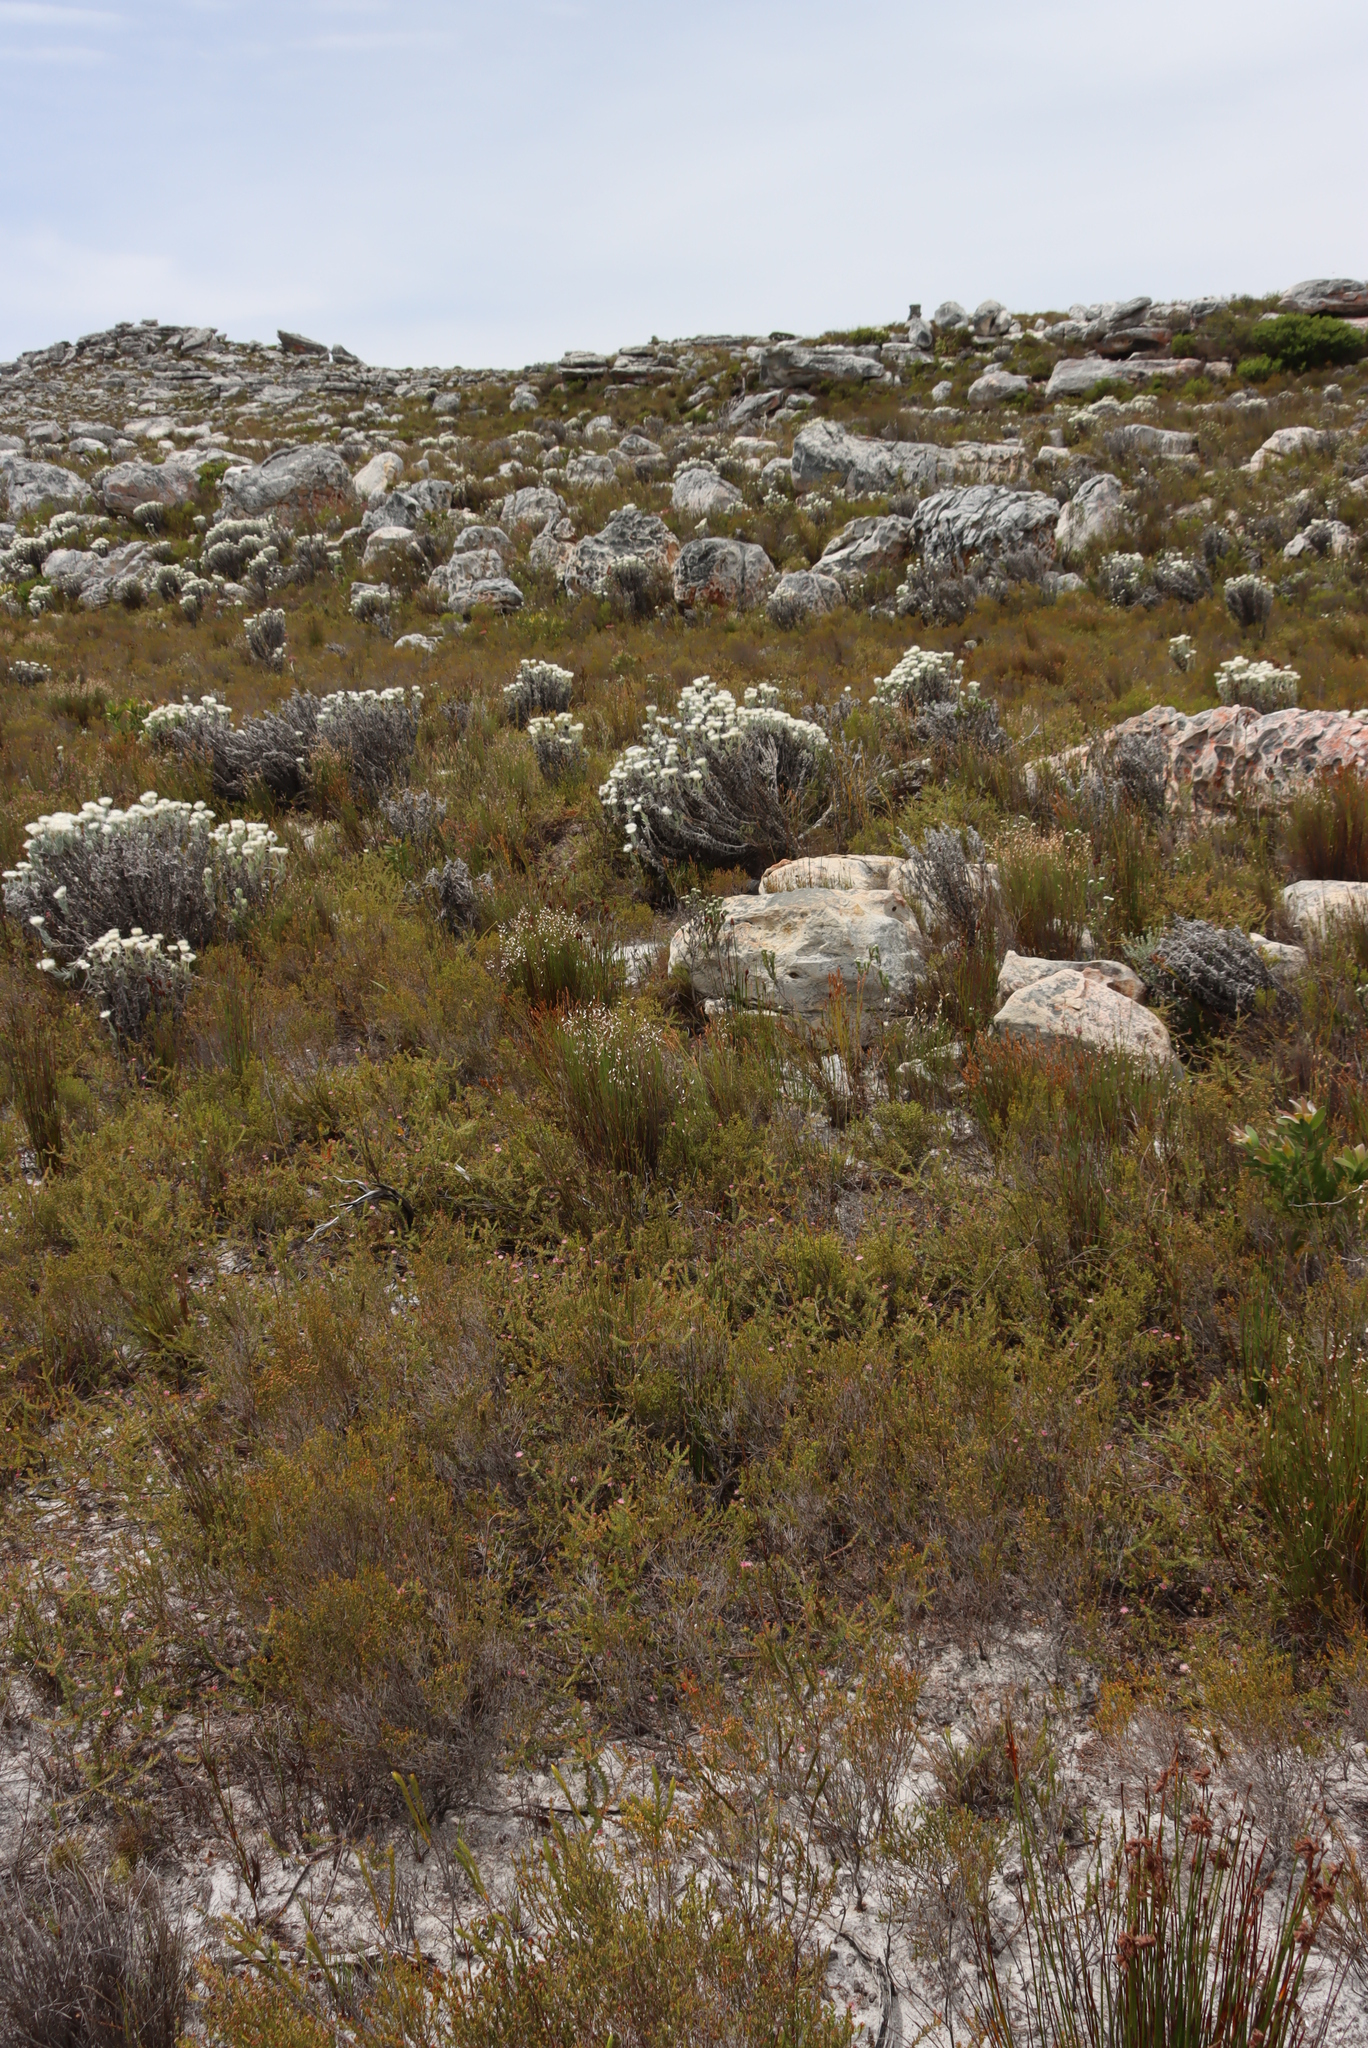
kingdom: Plantae
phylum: Tracheophyta
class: Magnoliopsida
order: Proteales
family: Proteaceae
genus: Diastella
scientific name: Diastella divaricata
